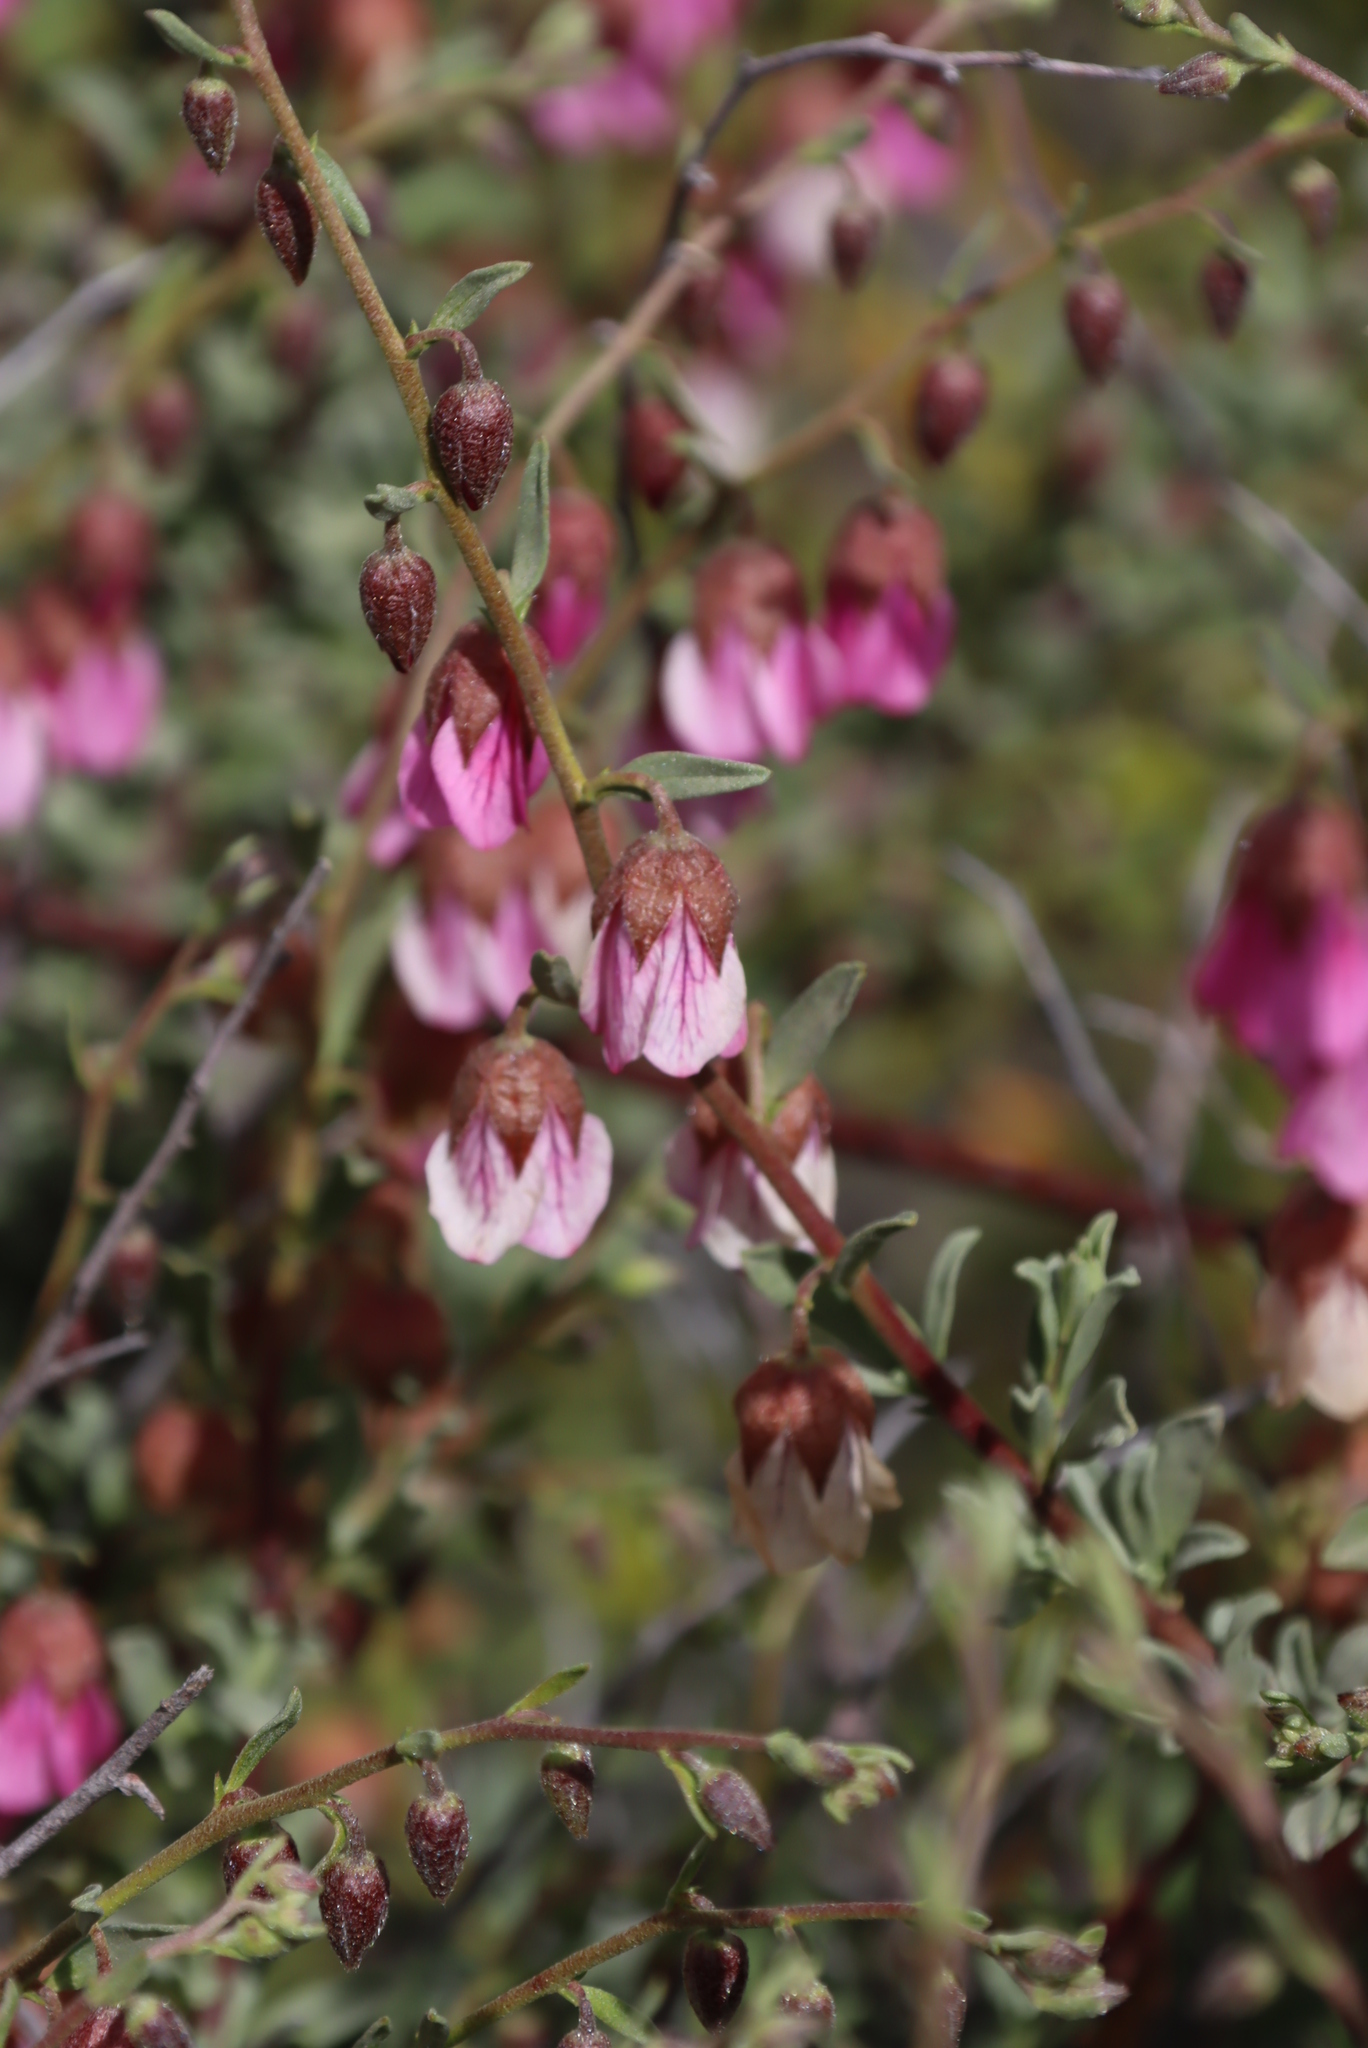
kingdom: Plantae
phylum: Tracheophyta
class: Magnoliopsida
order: Malvales
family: Malvaceae
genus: Hermannia
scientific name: Hermannia heterophylla
